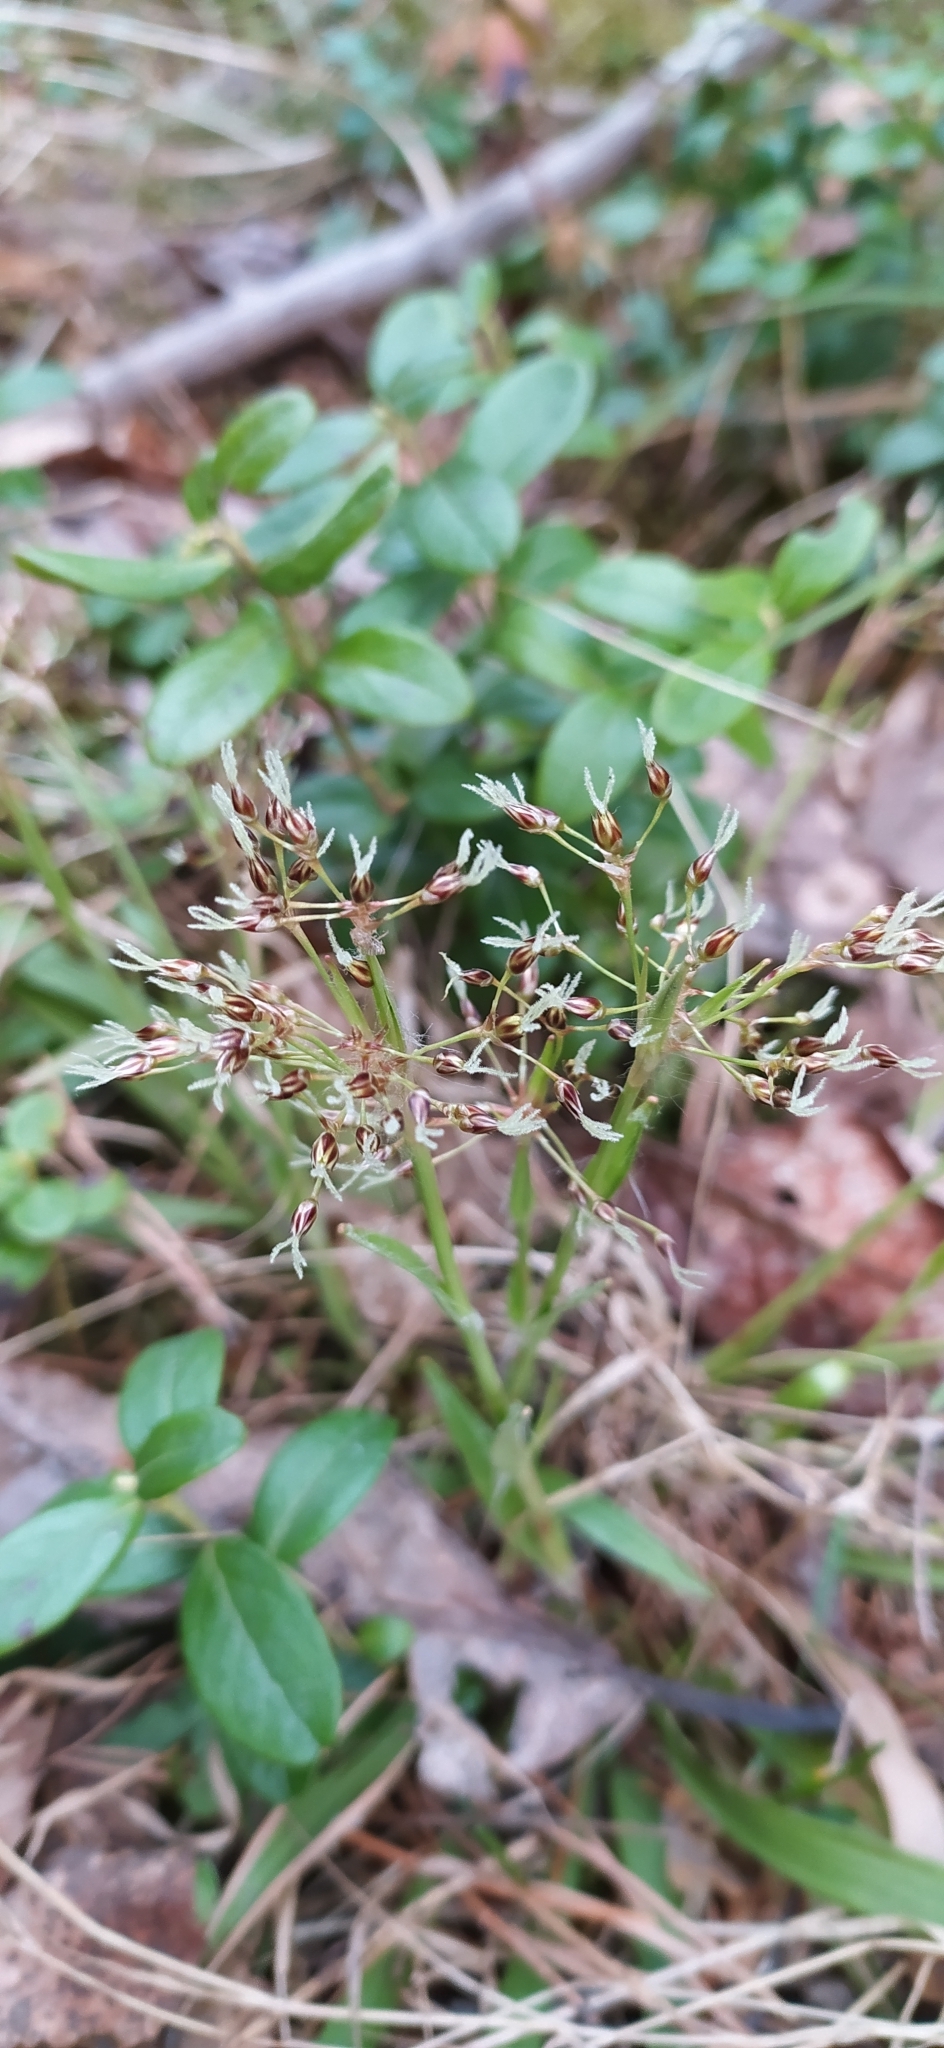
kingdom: Plantae
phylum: Tracheophyta
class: Liliopsida
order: Poales
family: Juncaceae
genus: Luzula
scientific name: Luzula pilosa
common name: Hairy wood-rush
